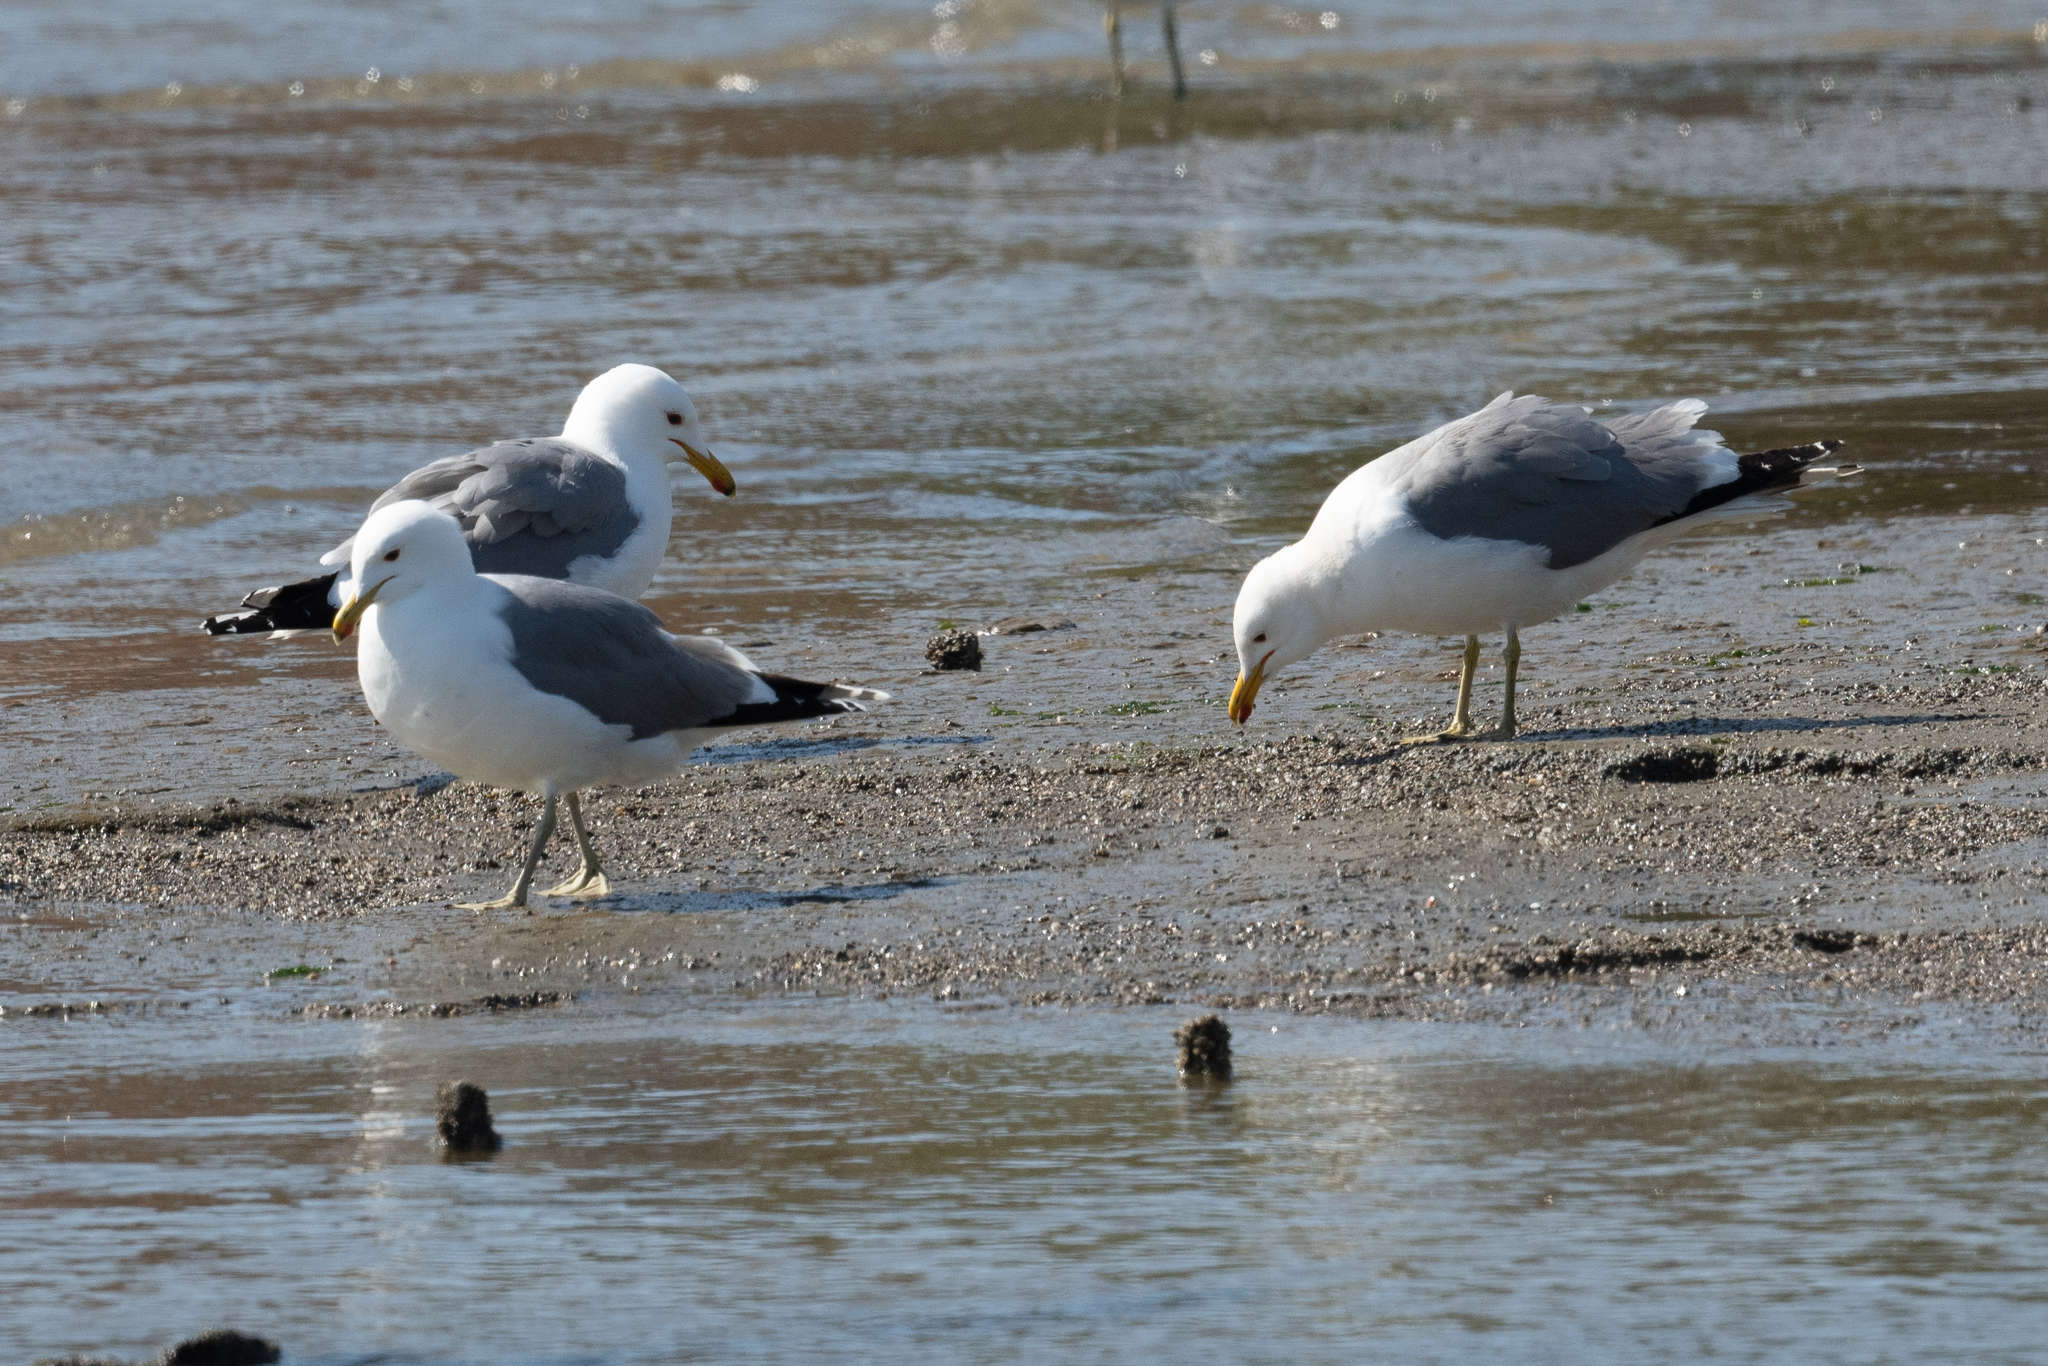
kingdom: Animalia
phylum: Chordata
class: Aves
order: Charadriiformes
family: Laridae
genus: Larus
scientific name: Larus californicus
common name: California gull
